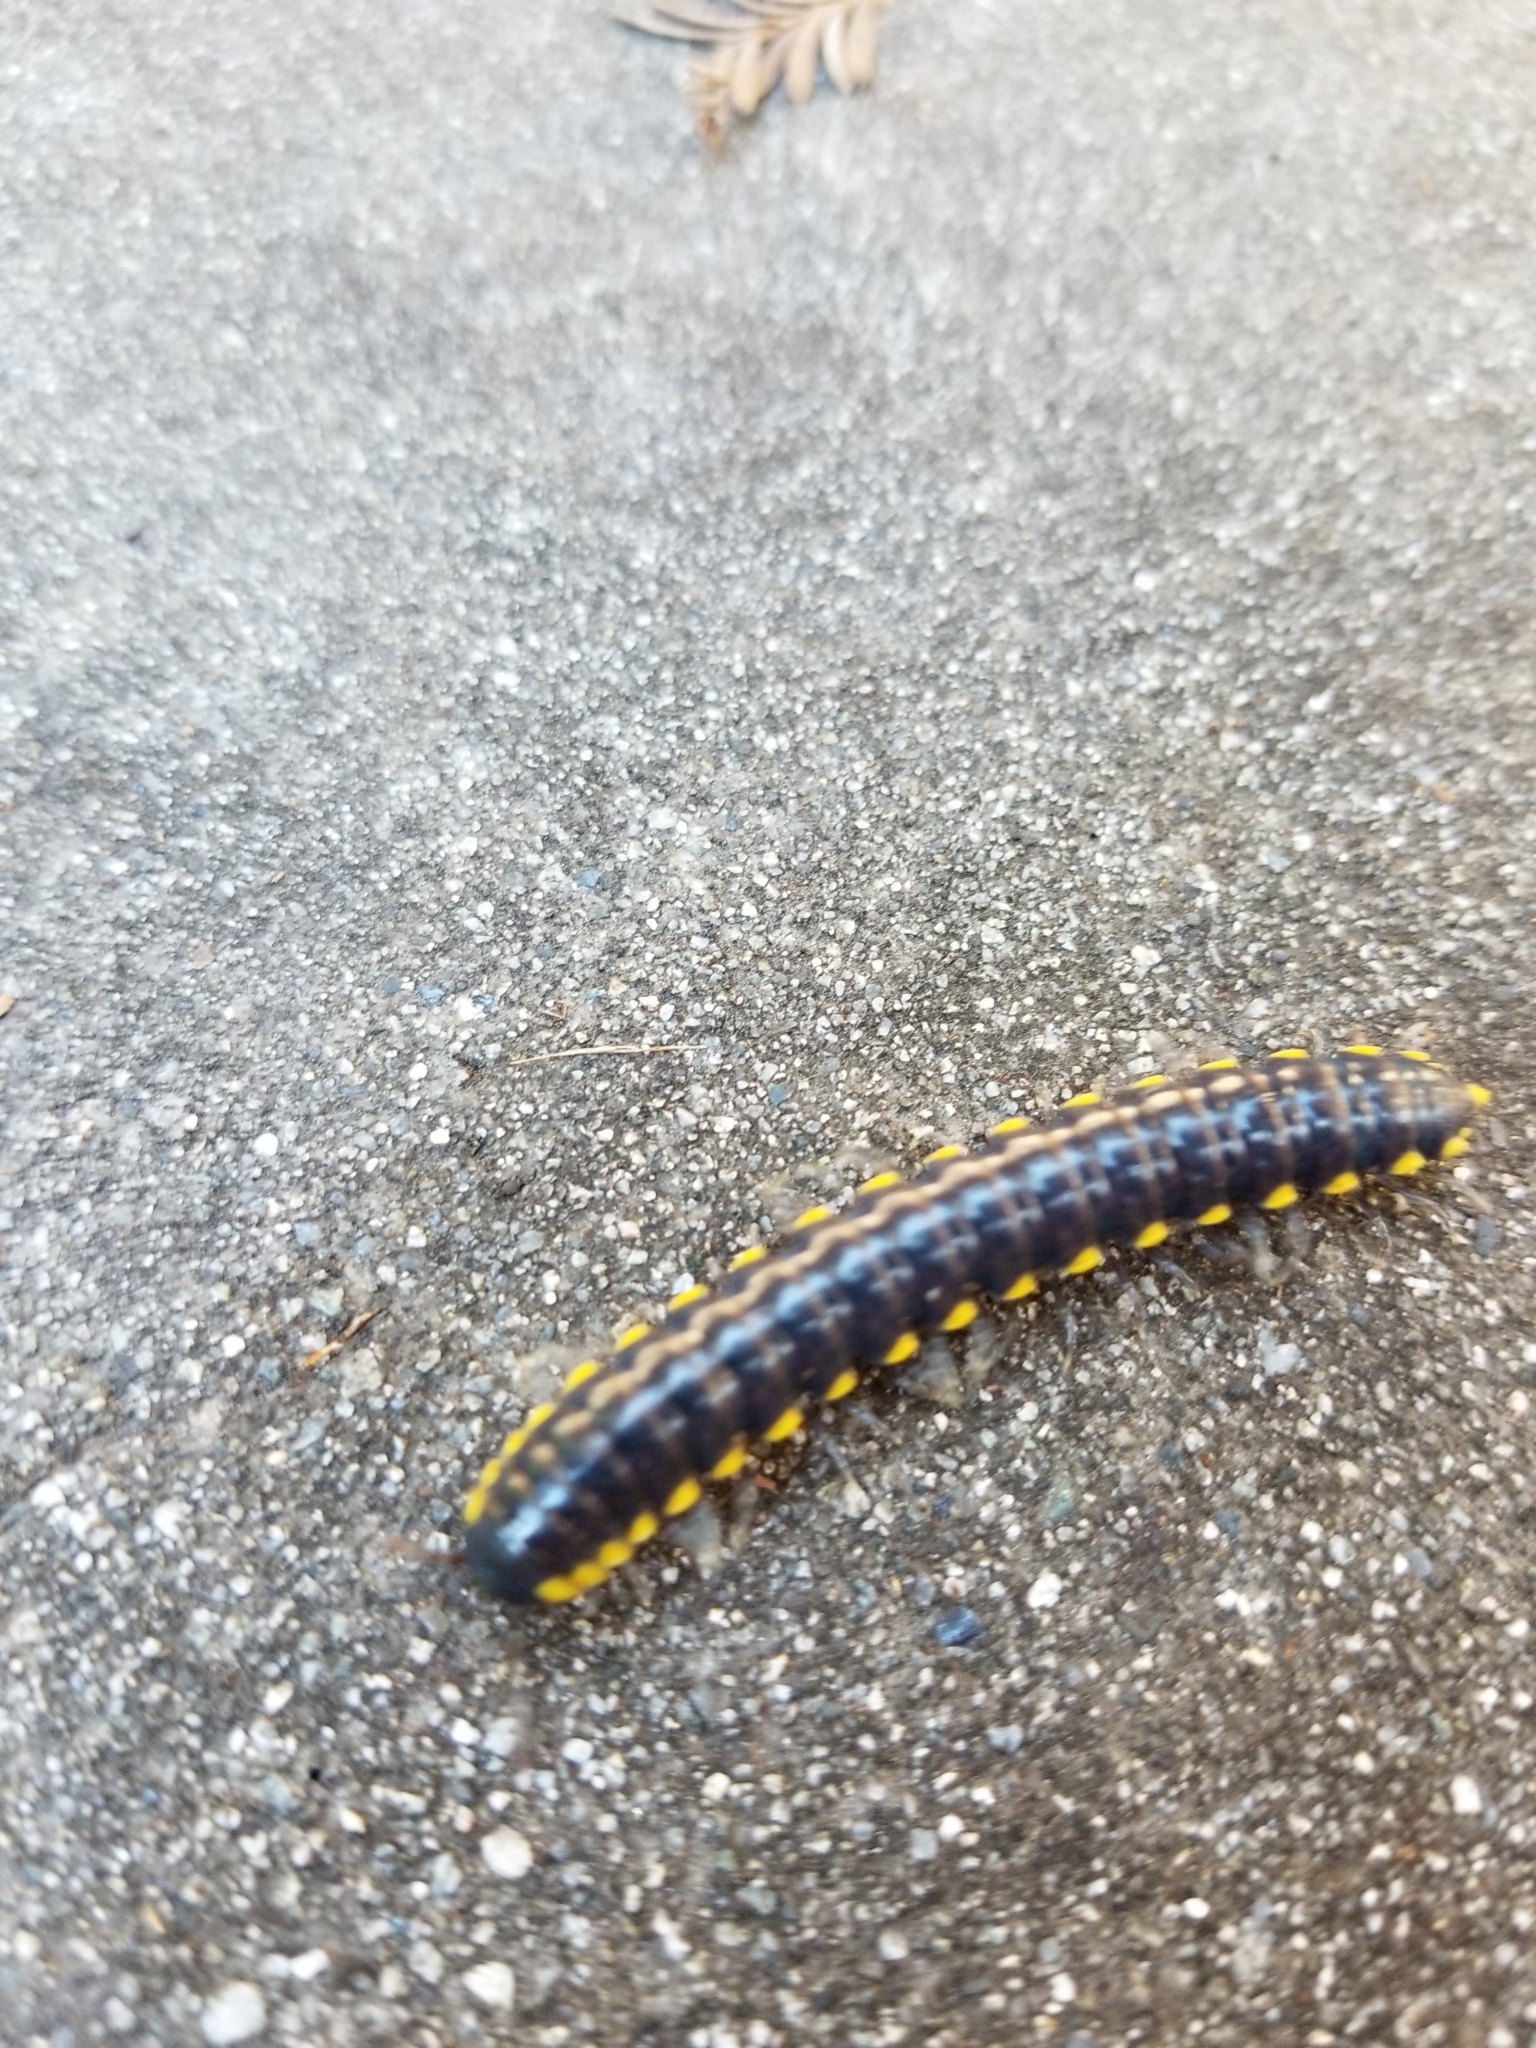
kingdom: Animalia
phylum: Arthropoda
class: Diplopoda
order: Polydesmida
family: Xystodesmidae
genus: Harpaphe
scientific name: Harpaphe haydeniana
